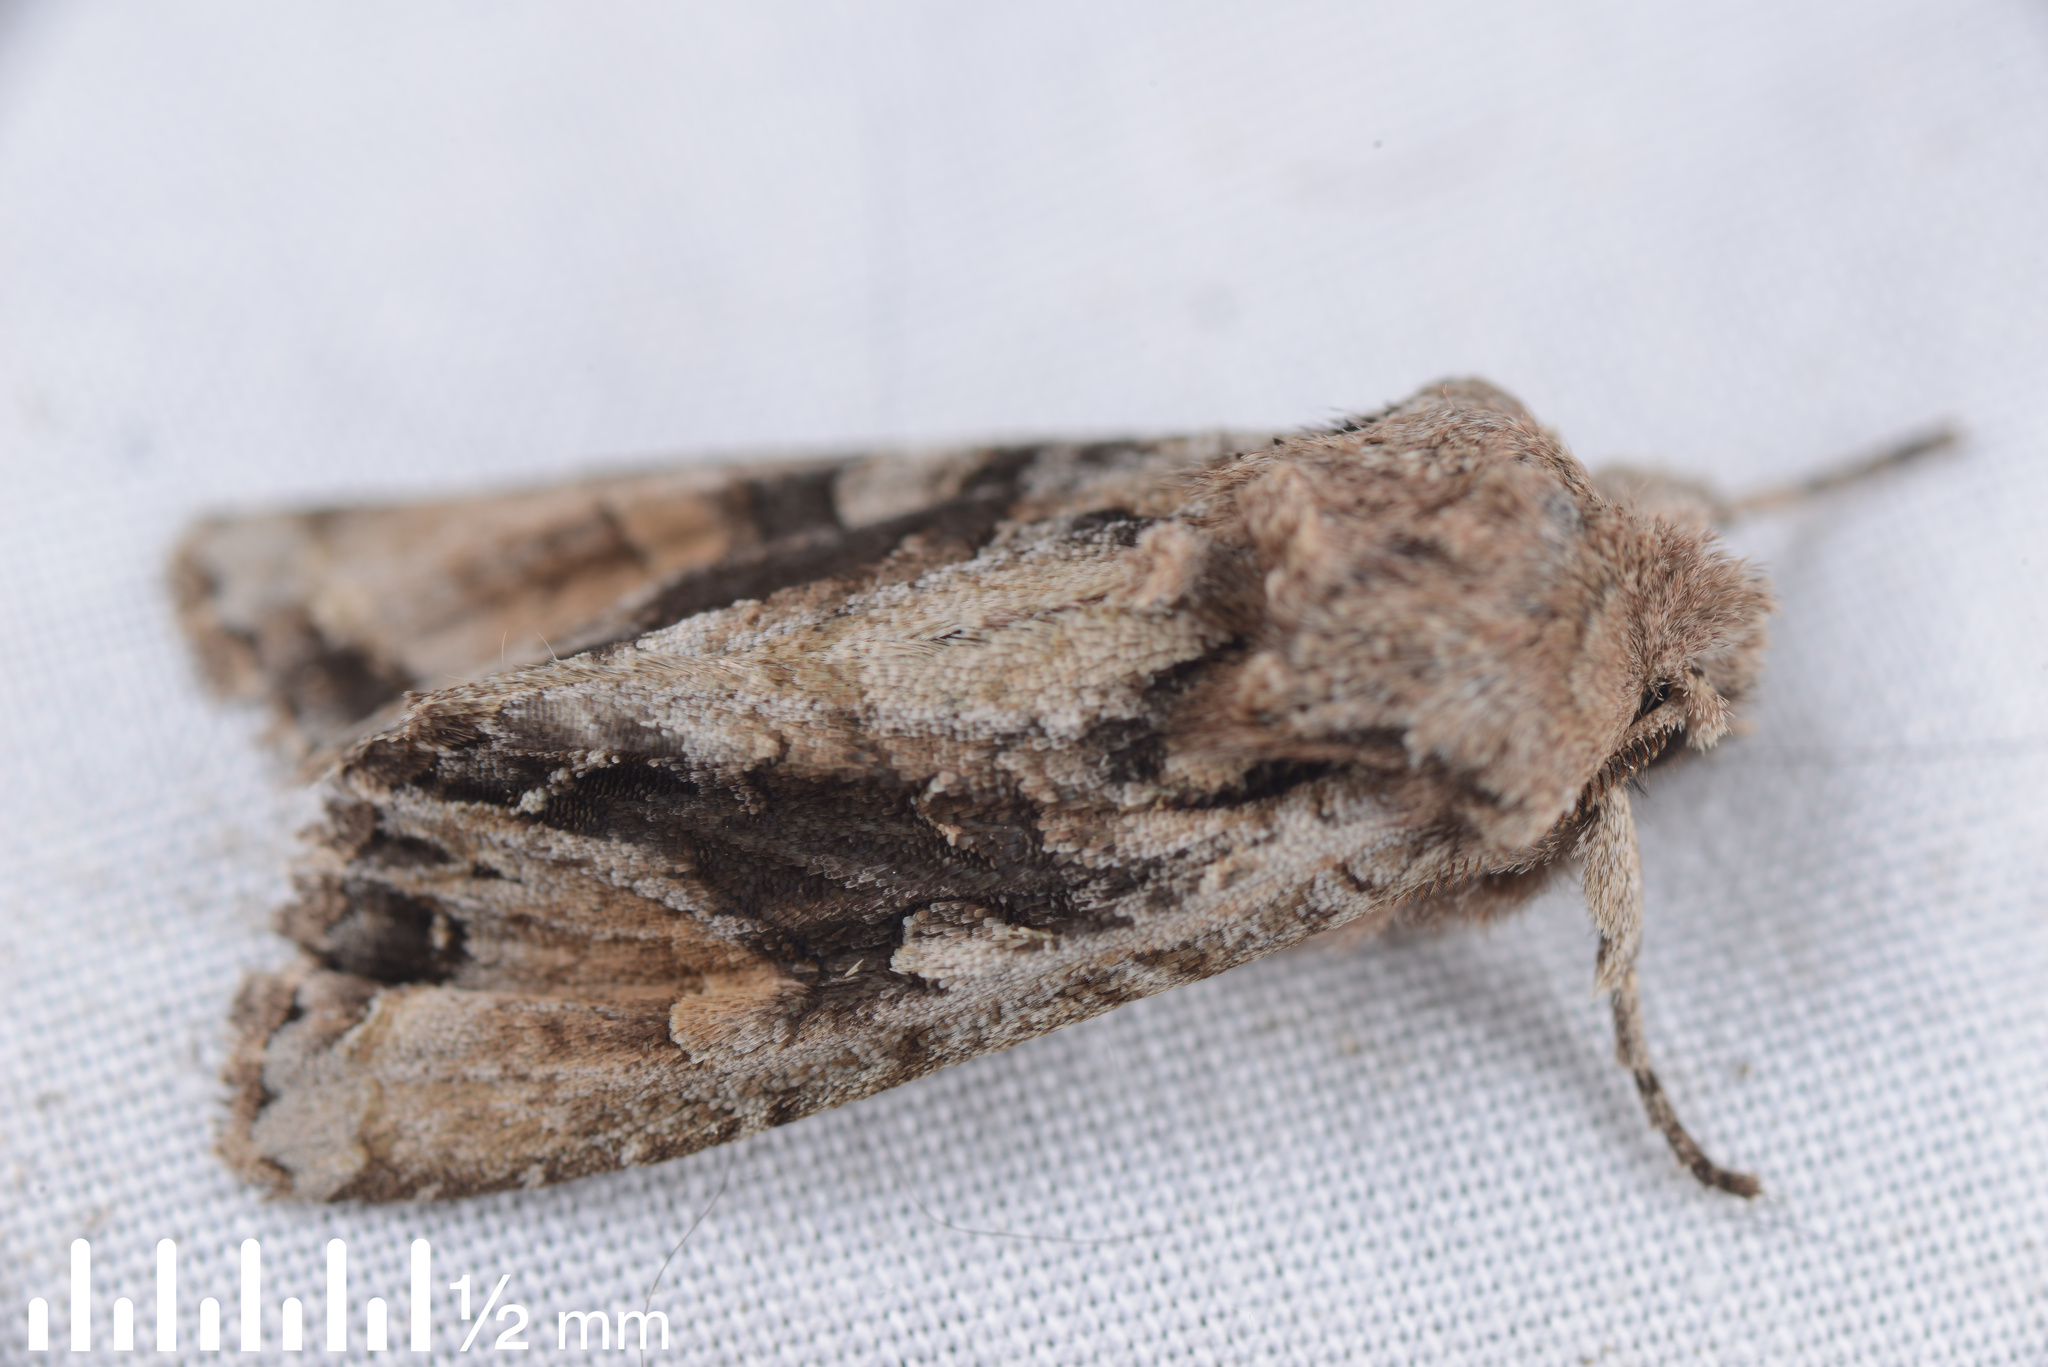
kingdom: Animalia
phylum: Arthropoda
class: Insecta
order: Lepidoptera
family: Noctuidae
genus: Ichneutica
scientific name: Ichneutica
